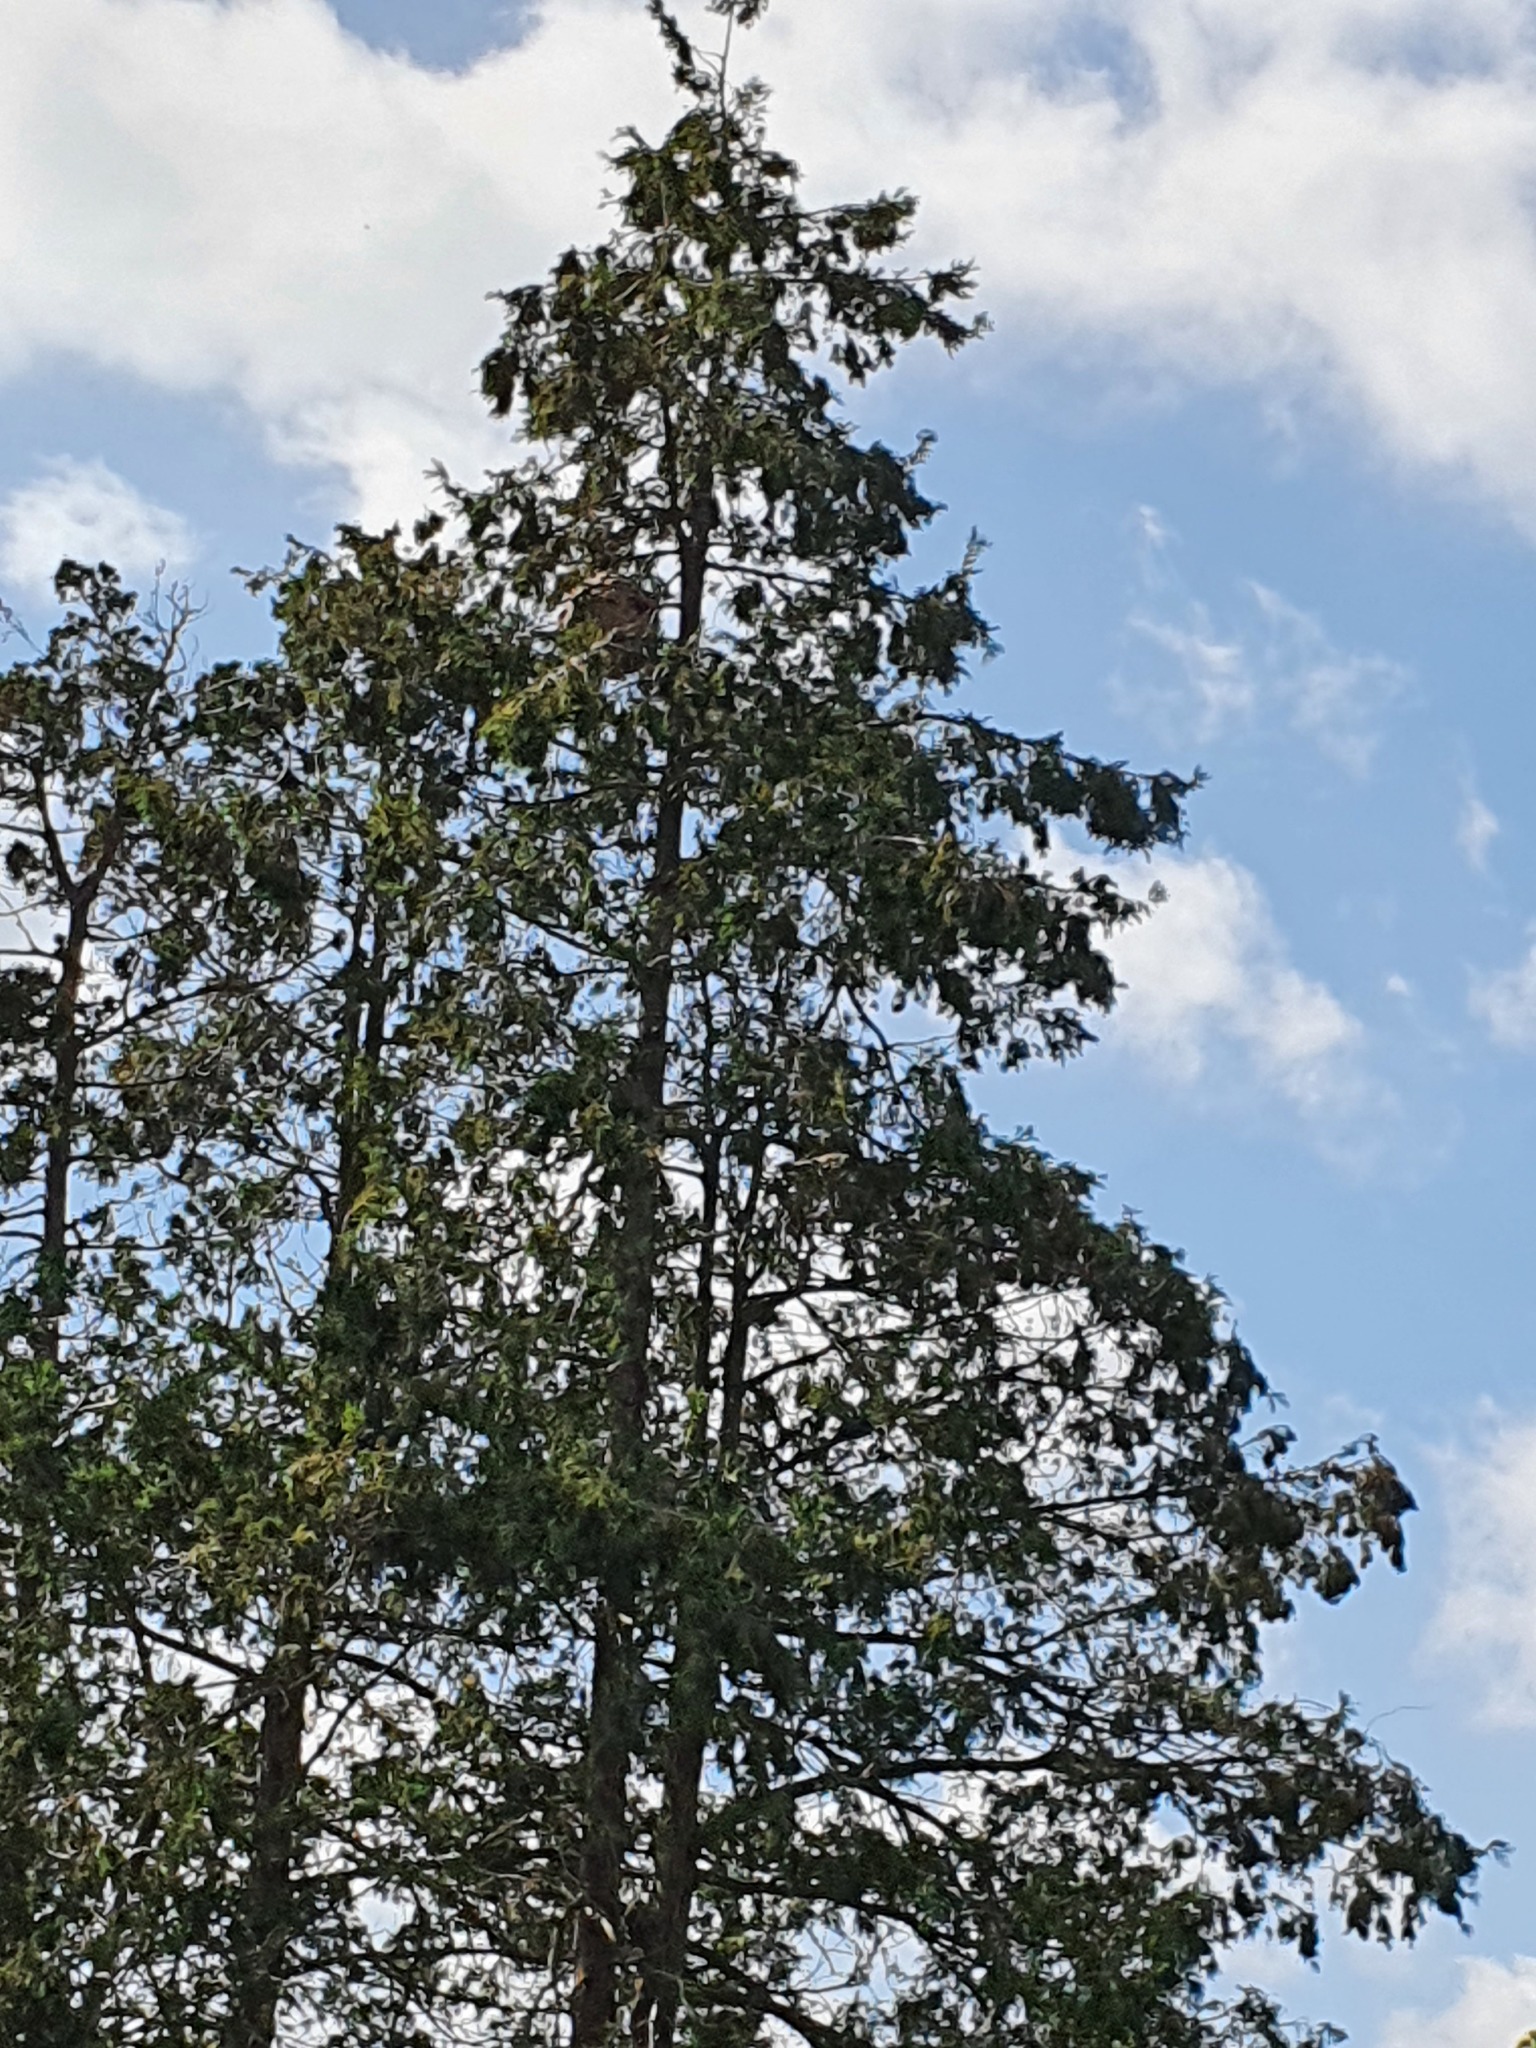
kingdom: Animalia
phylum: Arthropoda
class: Insecta
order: Hymenoptera
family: Vespidae
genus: Vespa
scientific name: Vespa velutina
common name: Asian hornet
